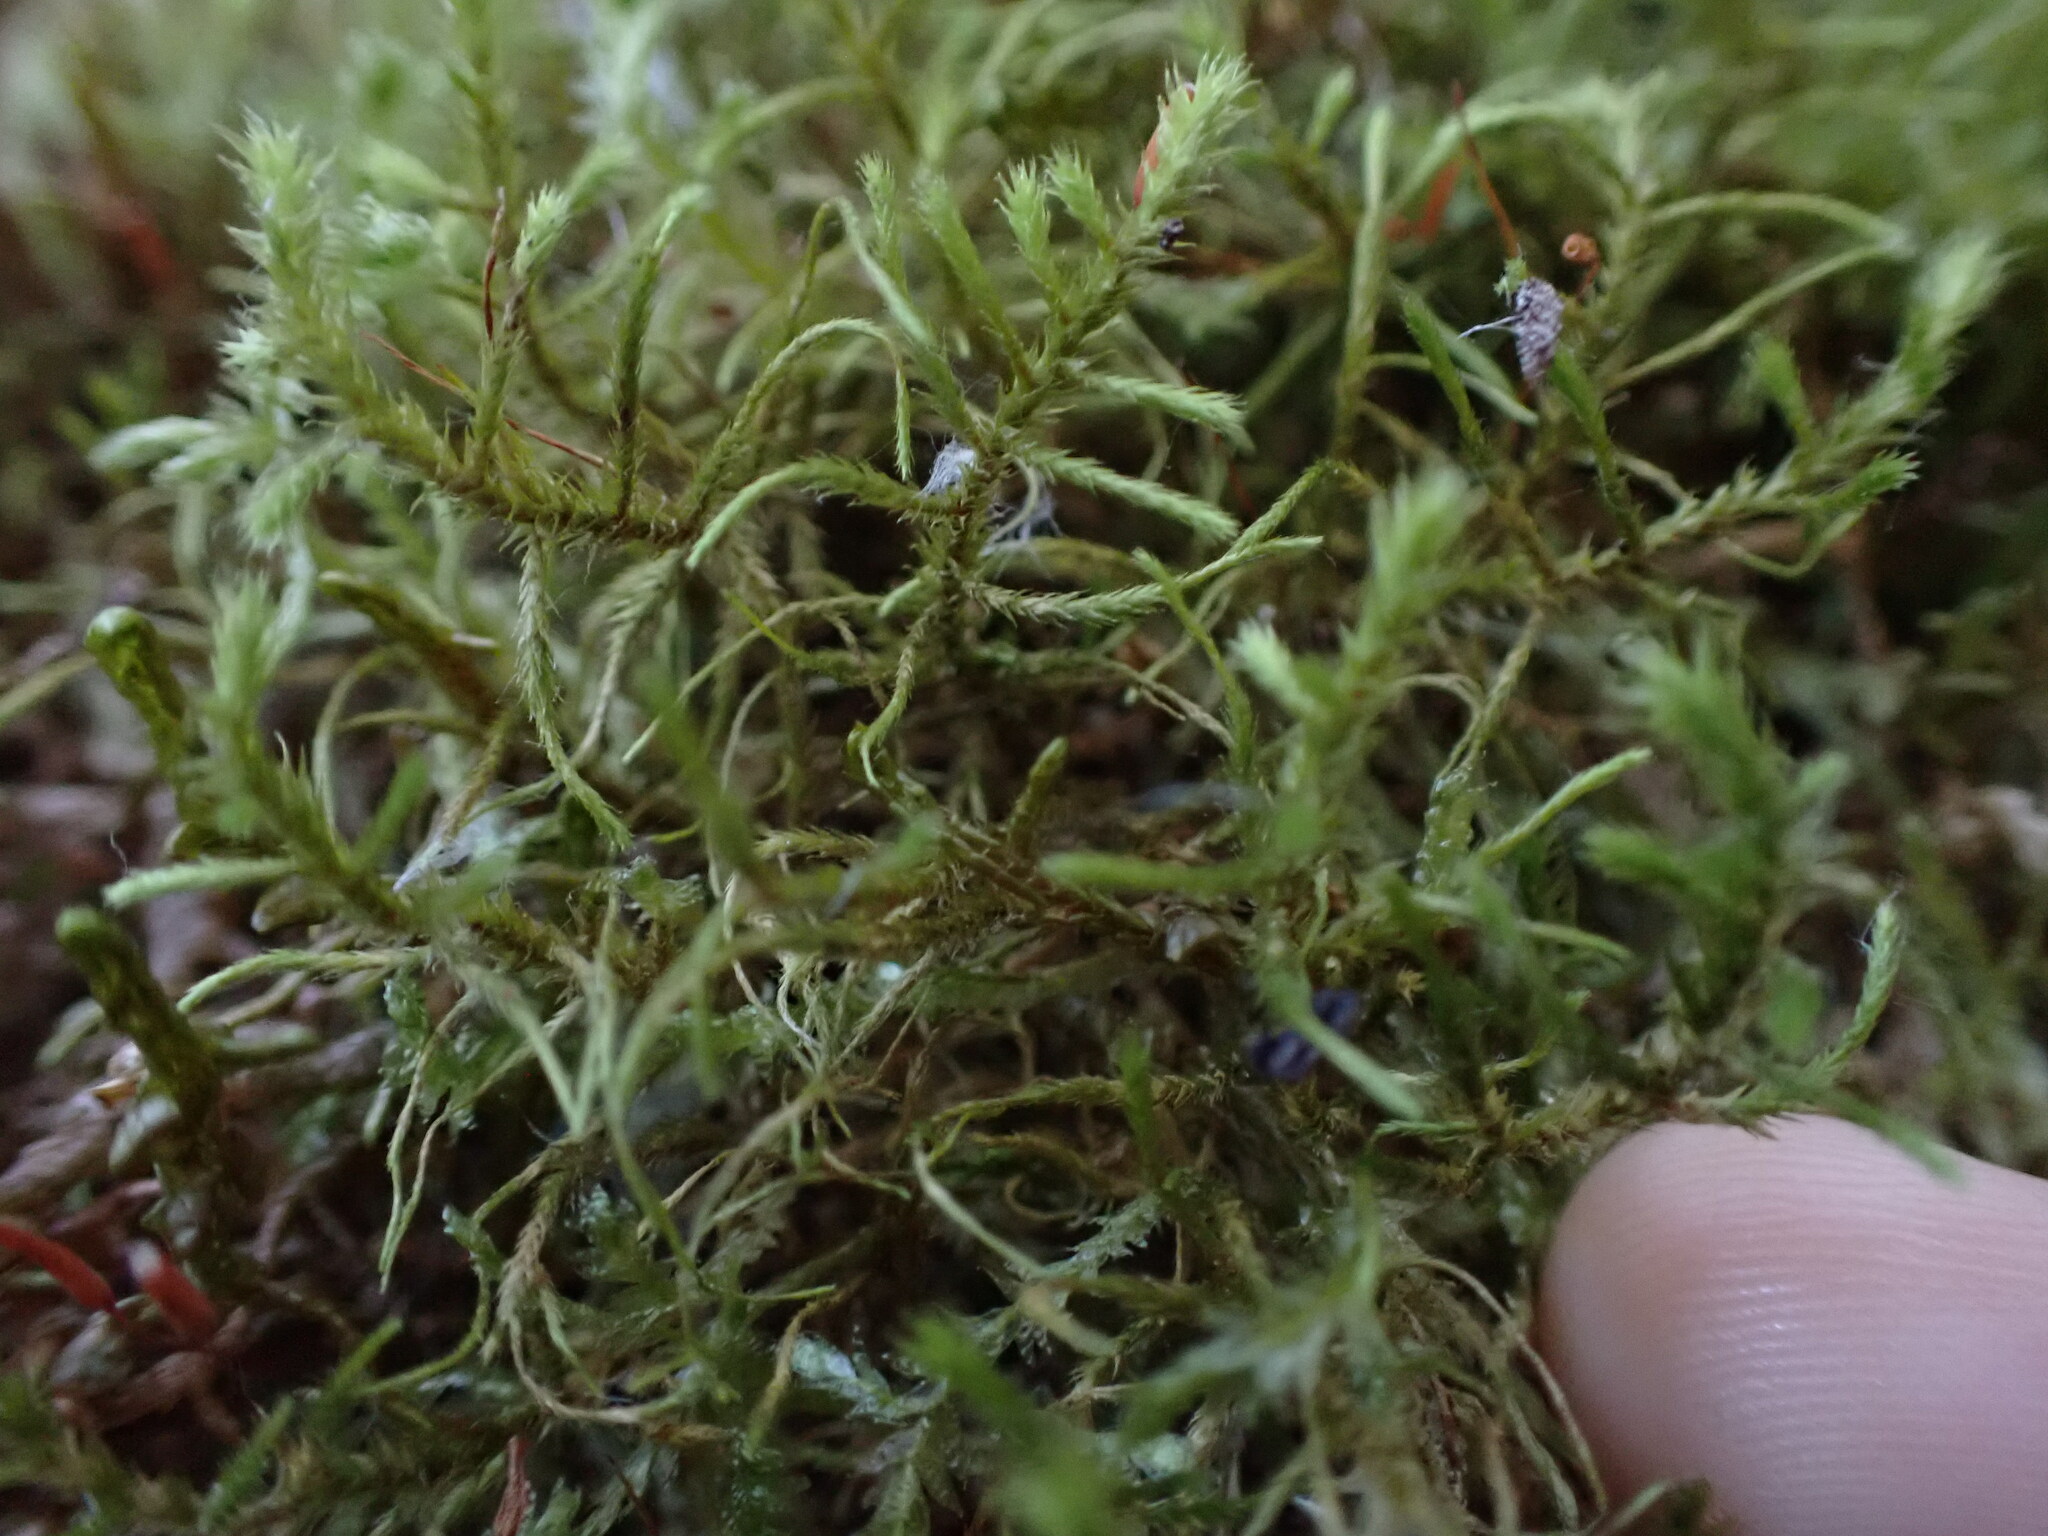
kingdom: Plantae
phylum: Bryophyta
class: Bryopsida
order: Hypnales
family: Antitrichiaceae
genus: Antitrichia
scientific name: Antitrichia californica
